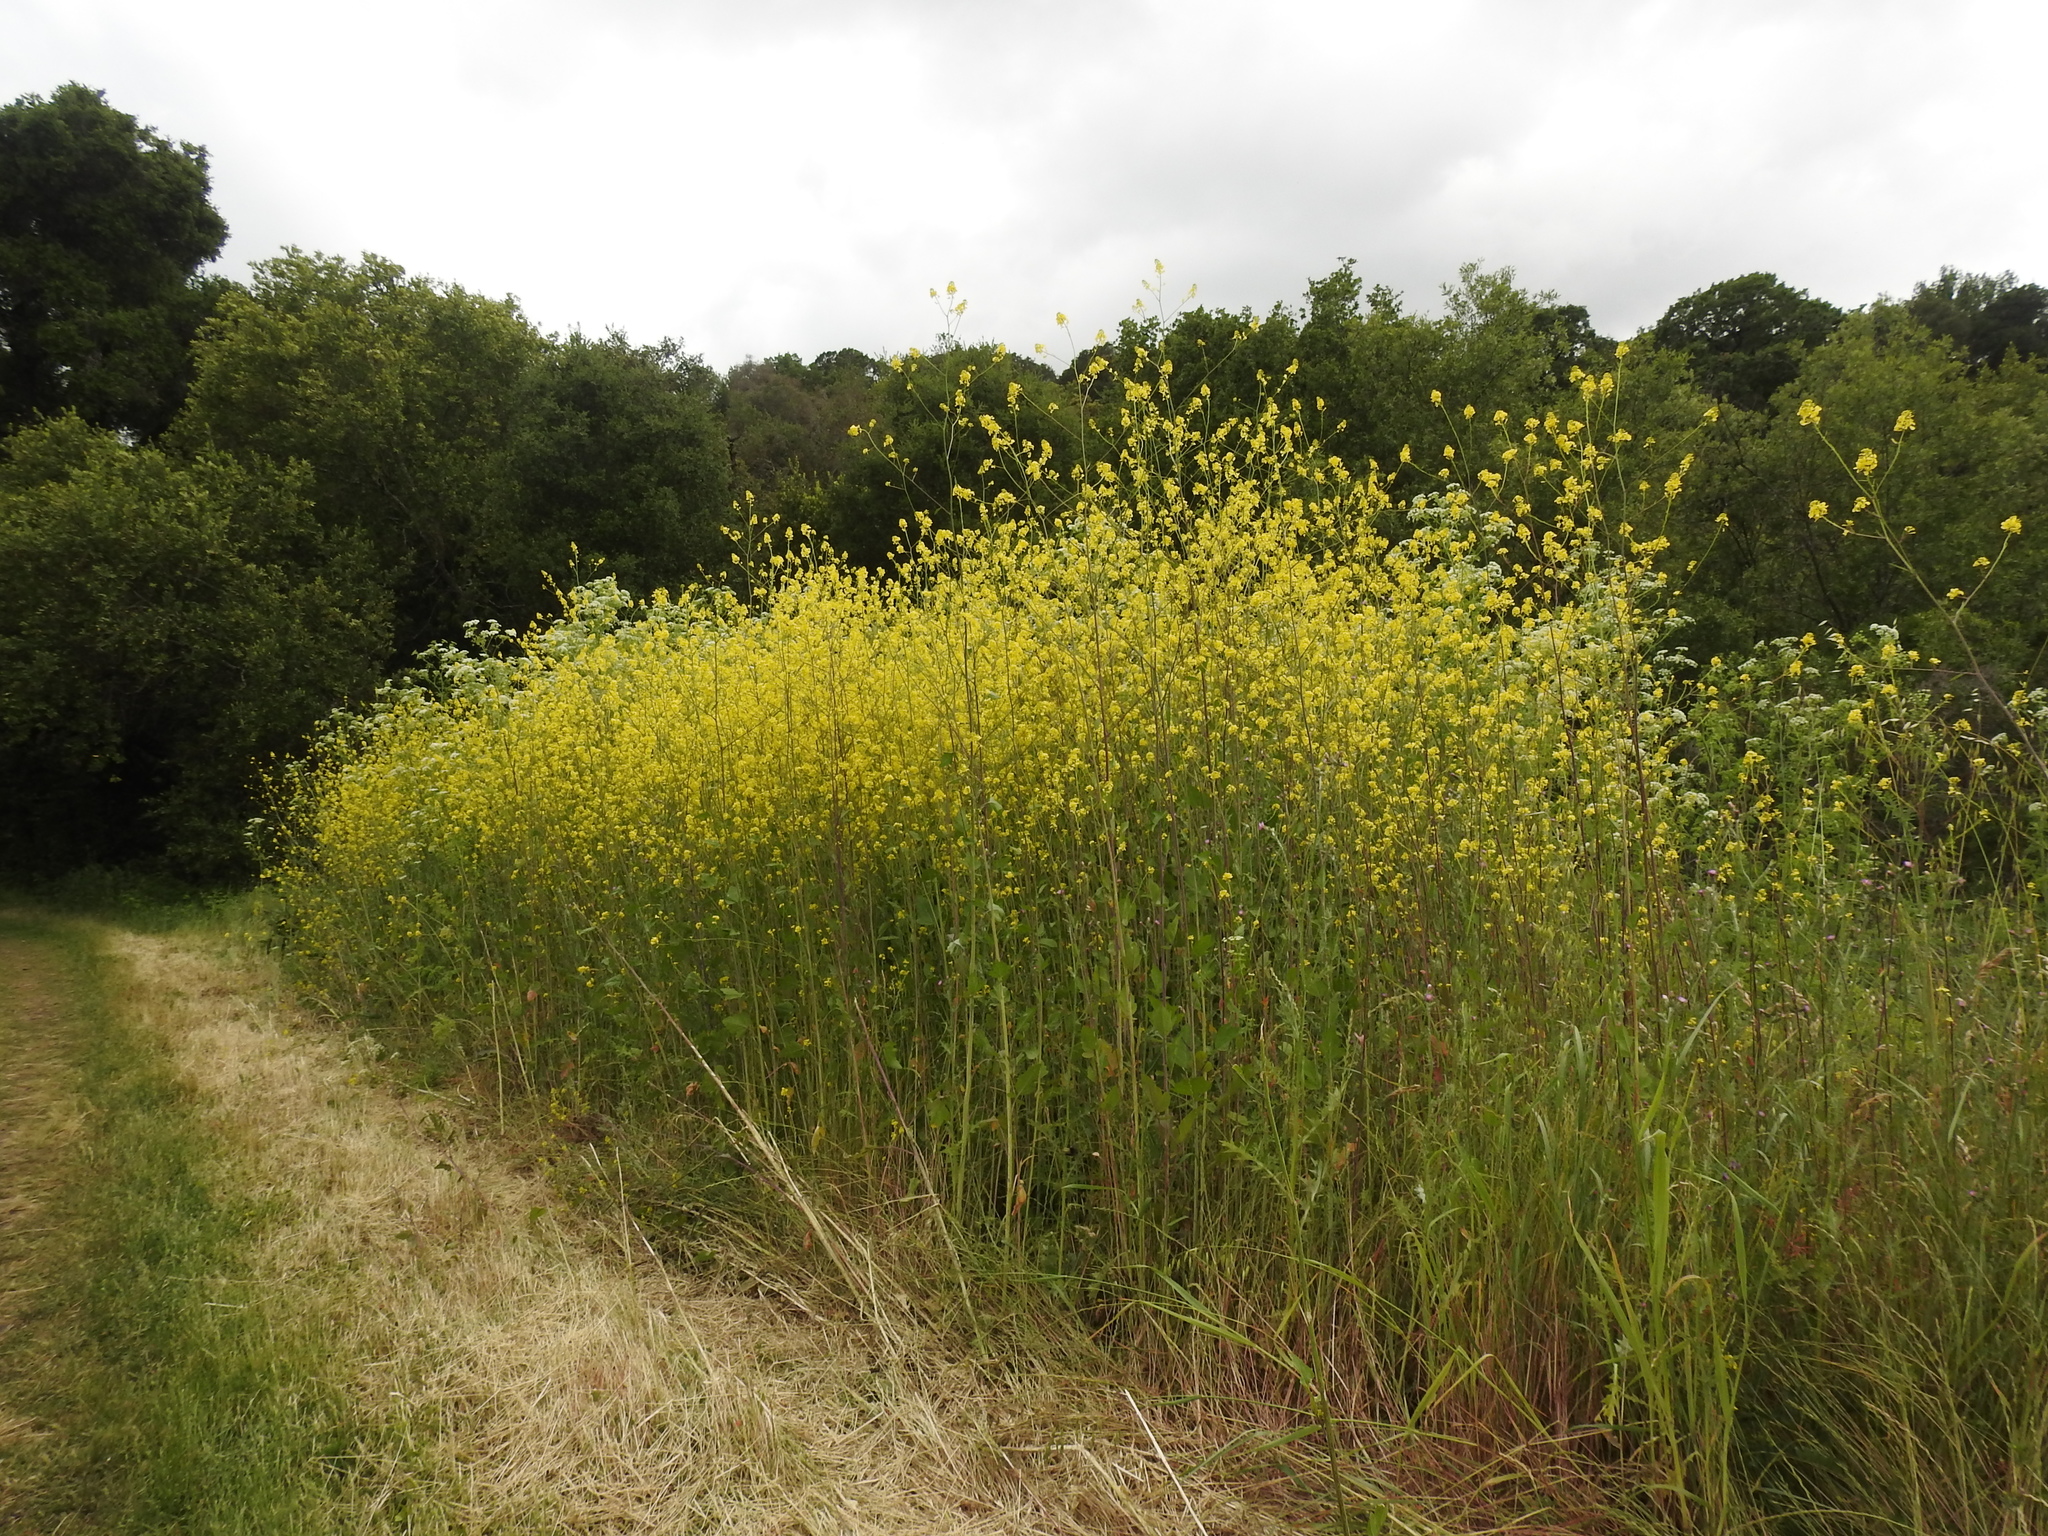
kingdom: Plantae
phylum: Tracheophyta
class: Magnoliopsida
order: Brassicales
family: Brassicaceae
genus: Brassica
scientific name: Brassica nigra
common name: Black mustard
